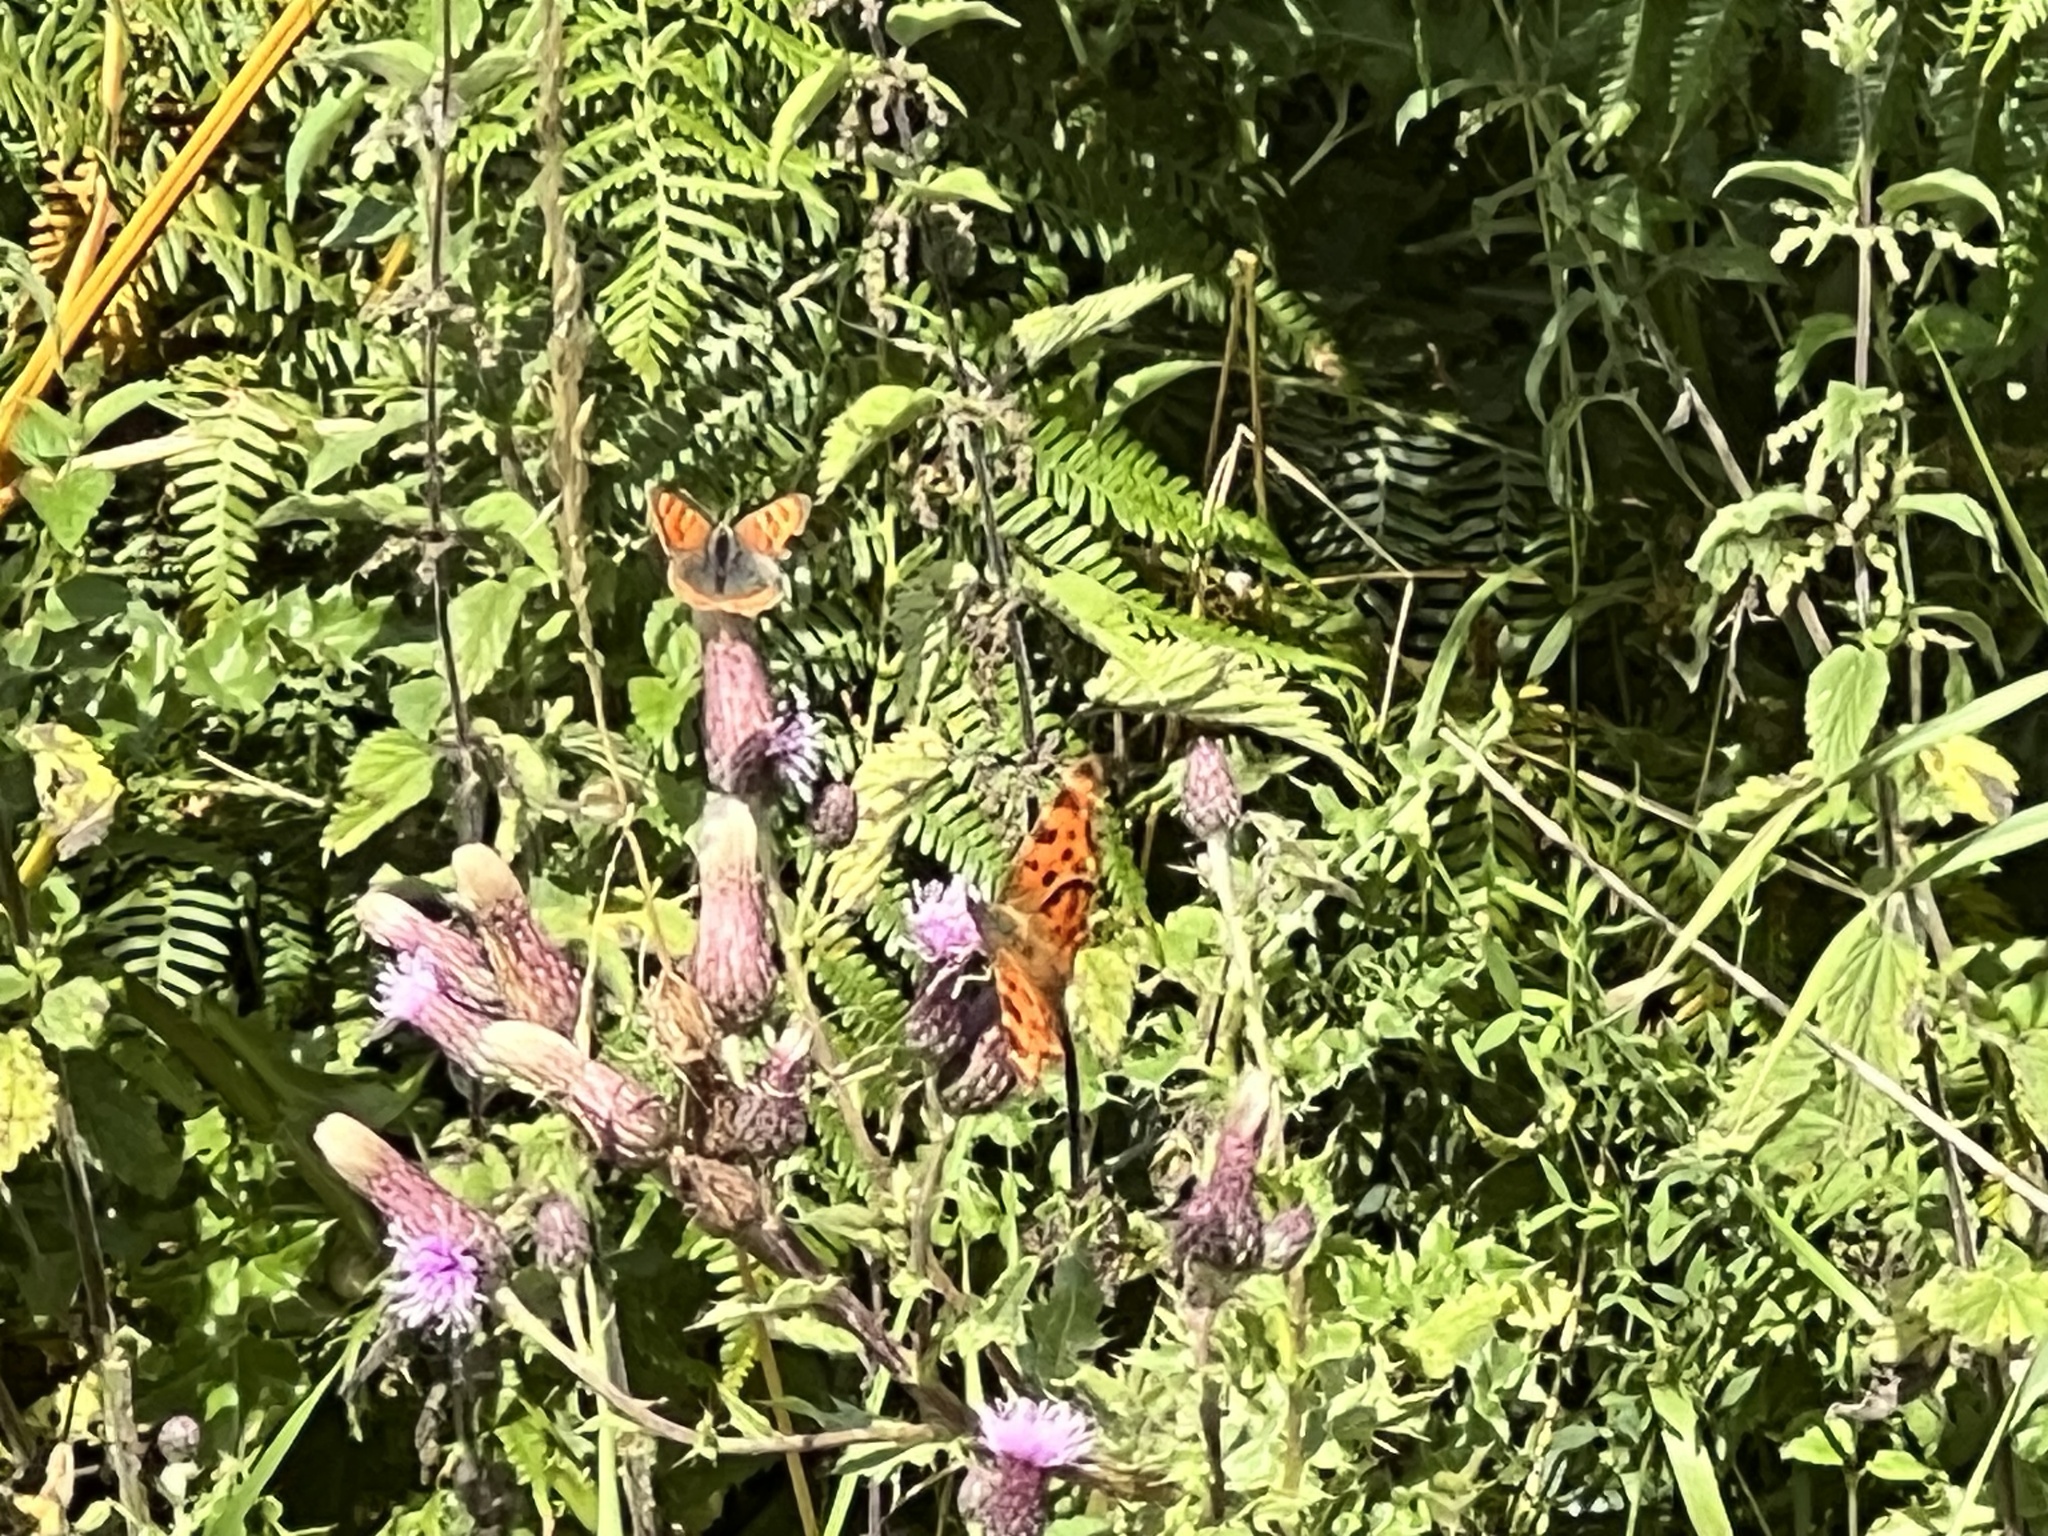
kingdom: Animalia
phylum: Arthropoda
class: Insecta
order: Lepidoptera
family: Lycaenidae
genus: Lycaena
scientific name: Lycaena phlaeas
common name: Small copper
